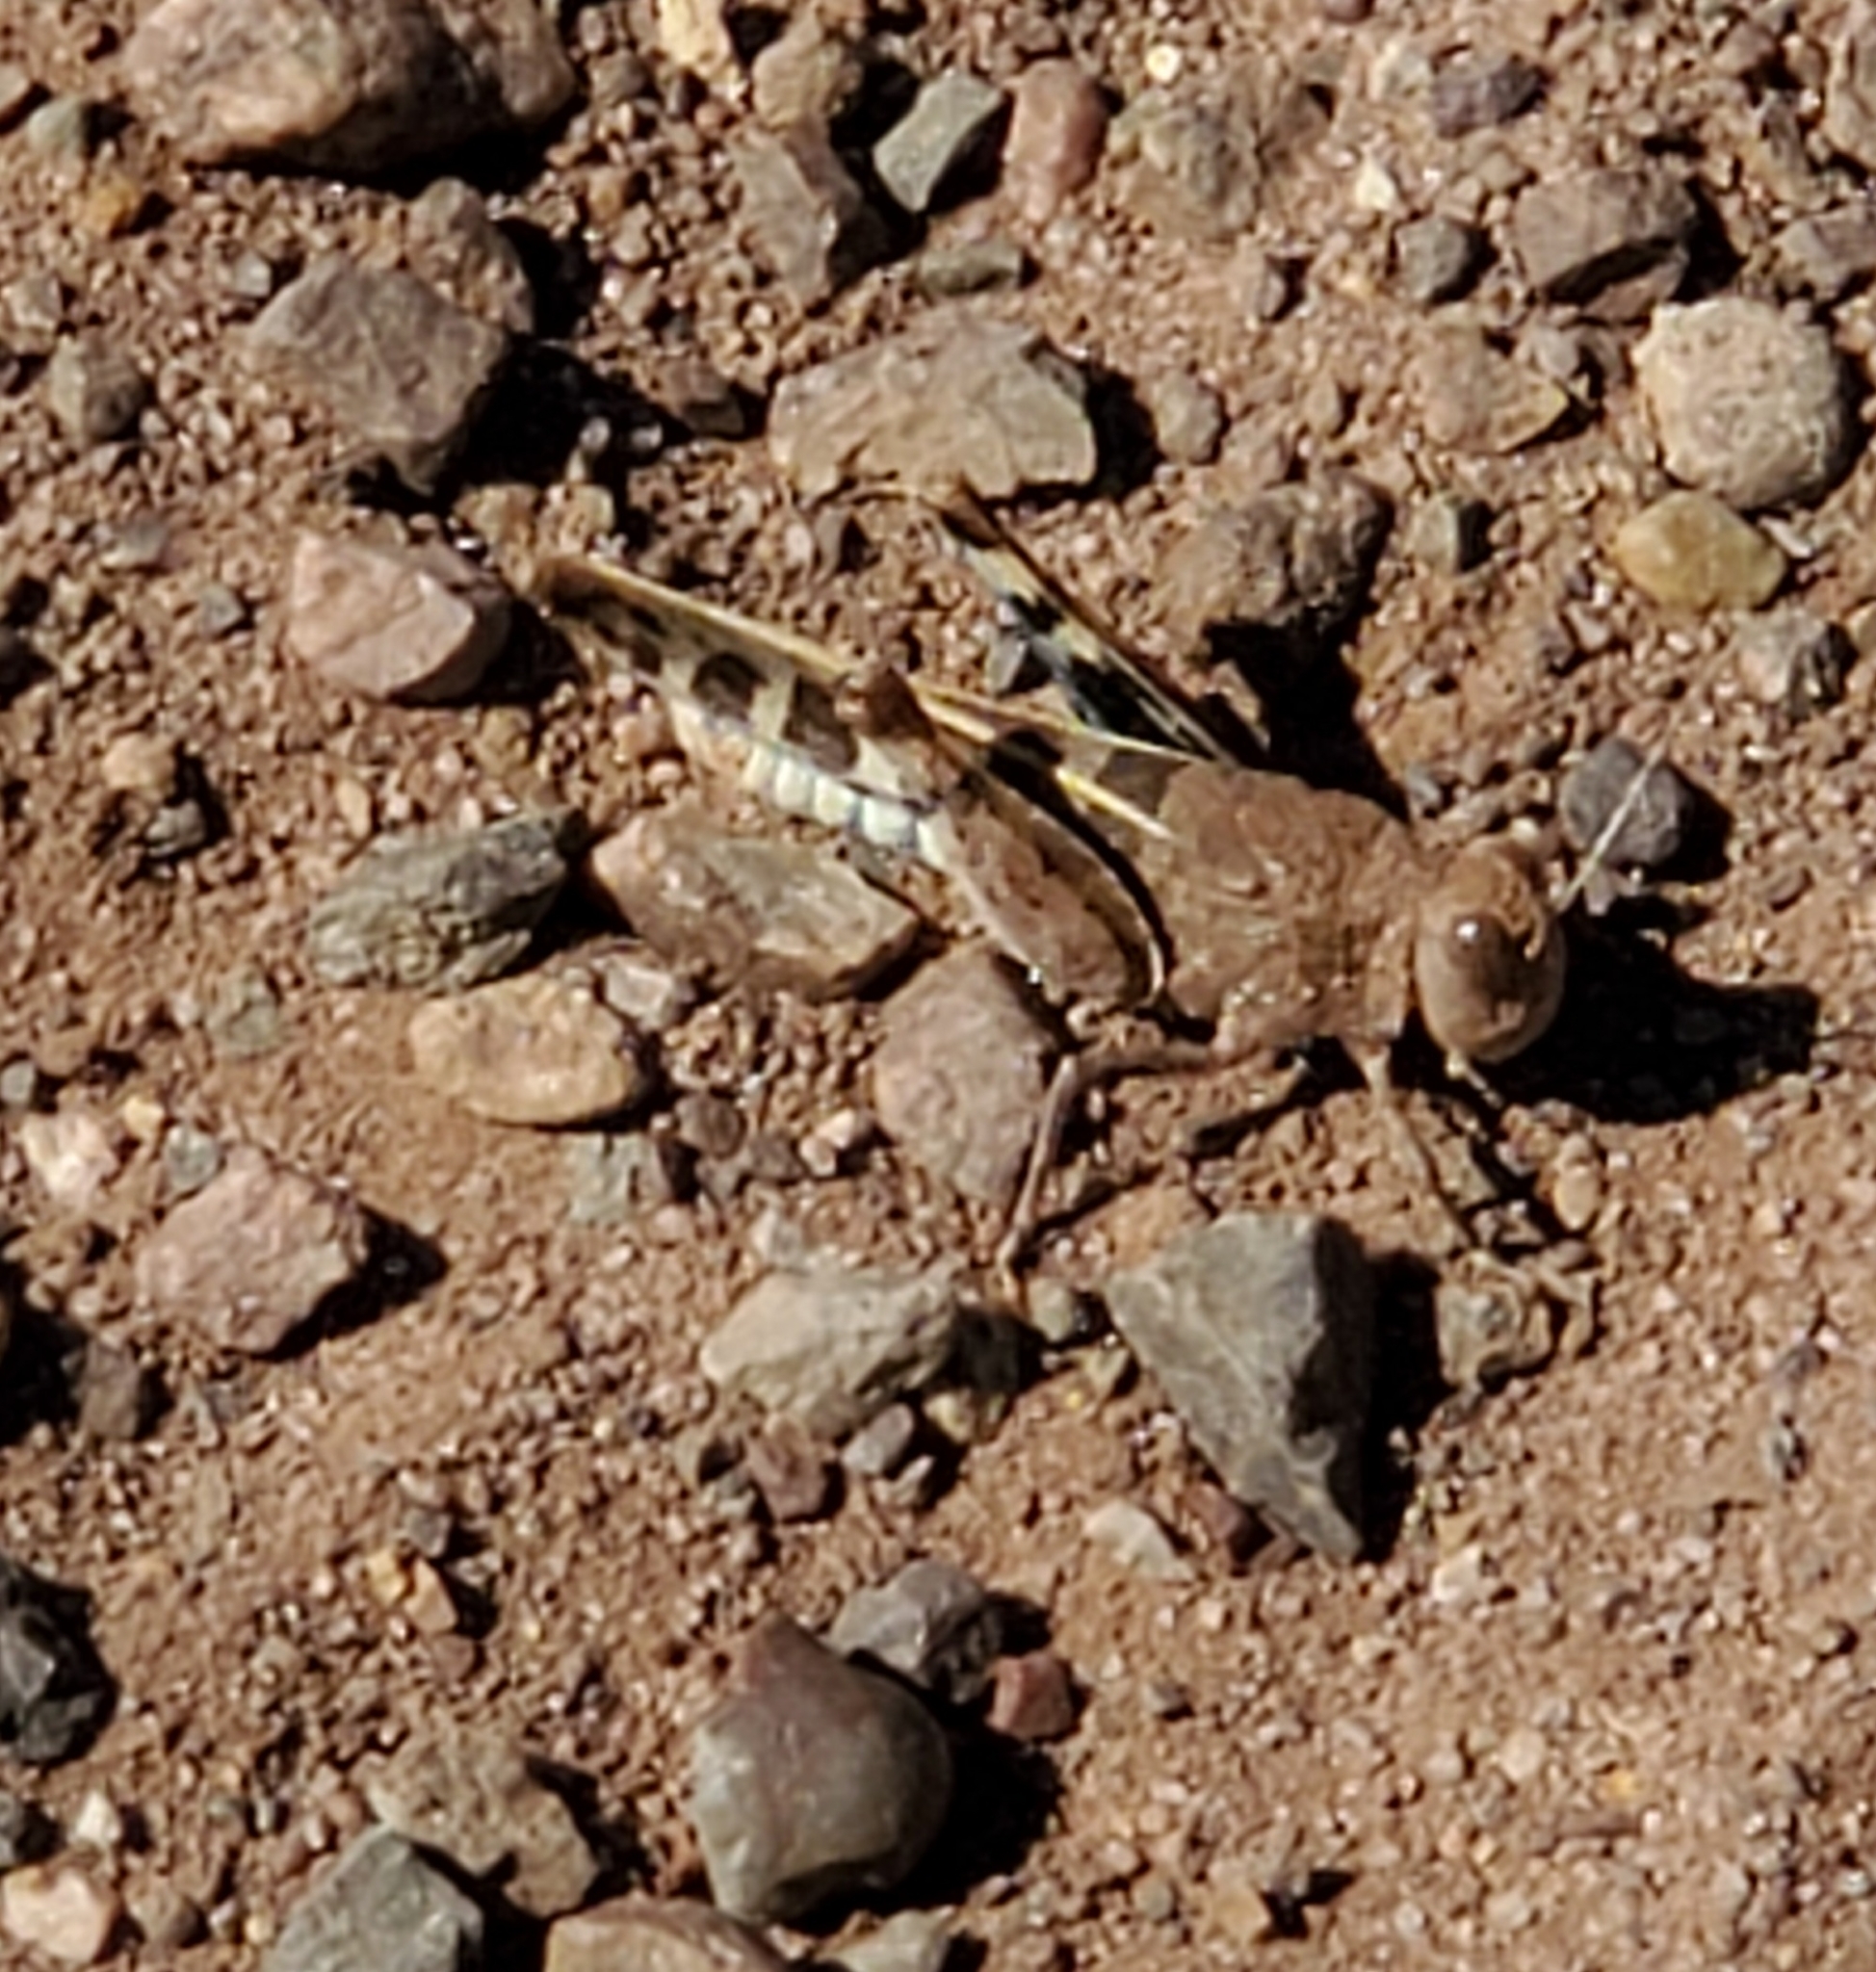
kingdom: Animalia
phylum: Arthropoda
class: Insecta
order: Orthoptera
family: Acrididae
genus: Leprus
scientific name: Leprus intermedius
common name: Saussure's blue-winged grasshopper
